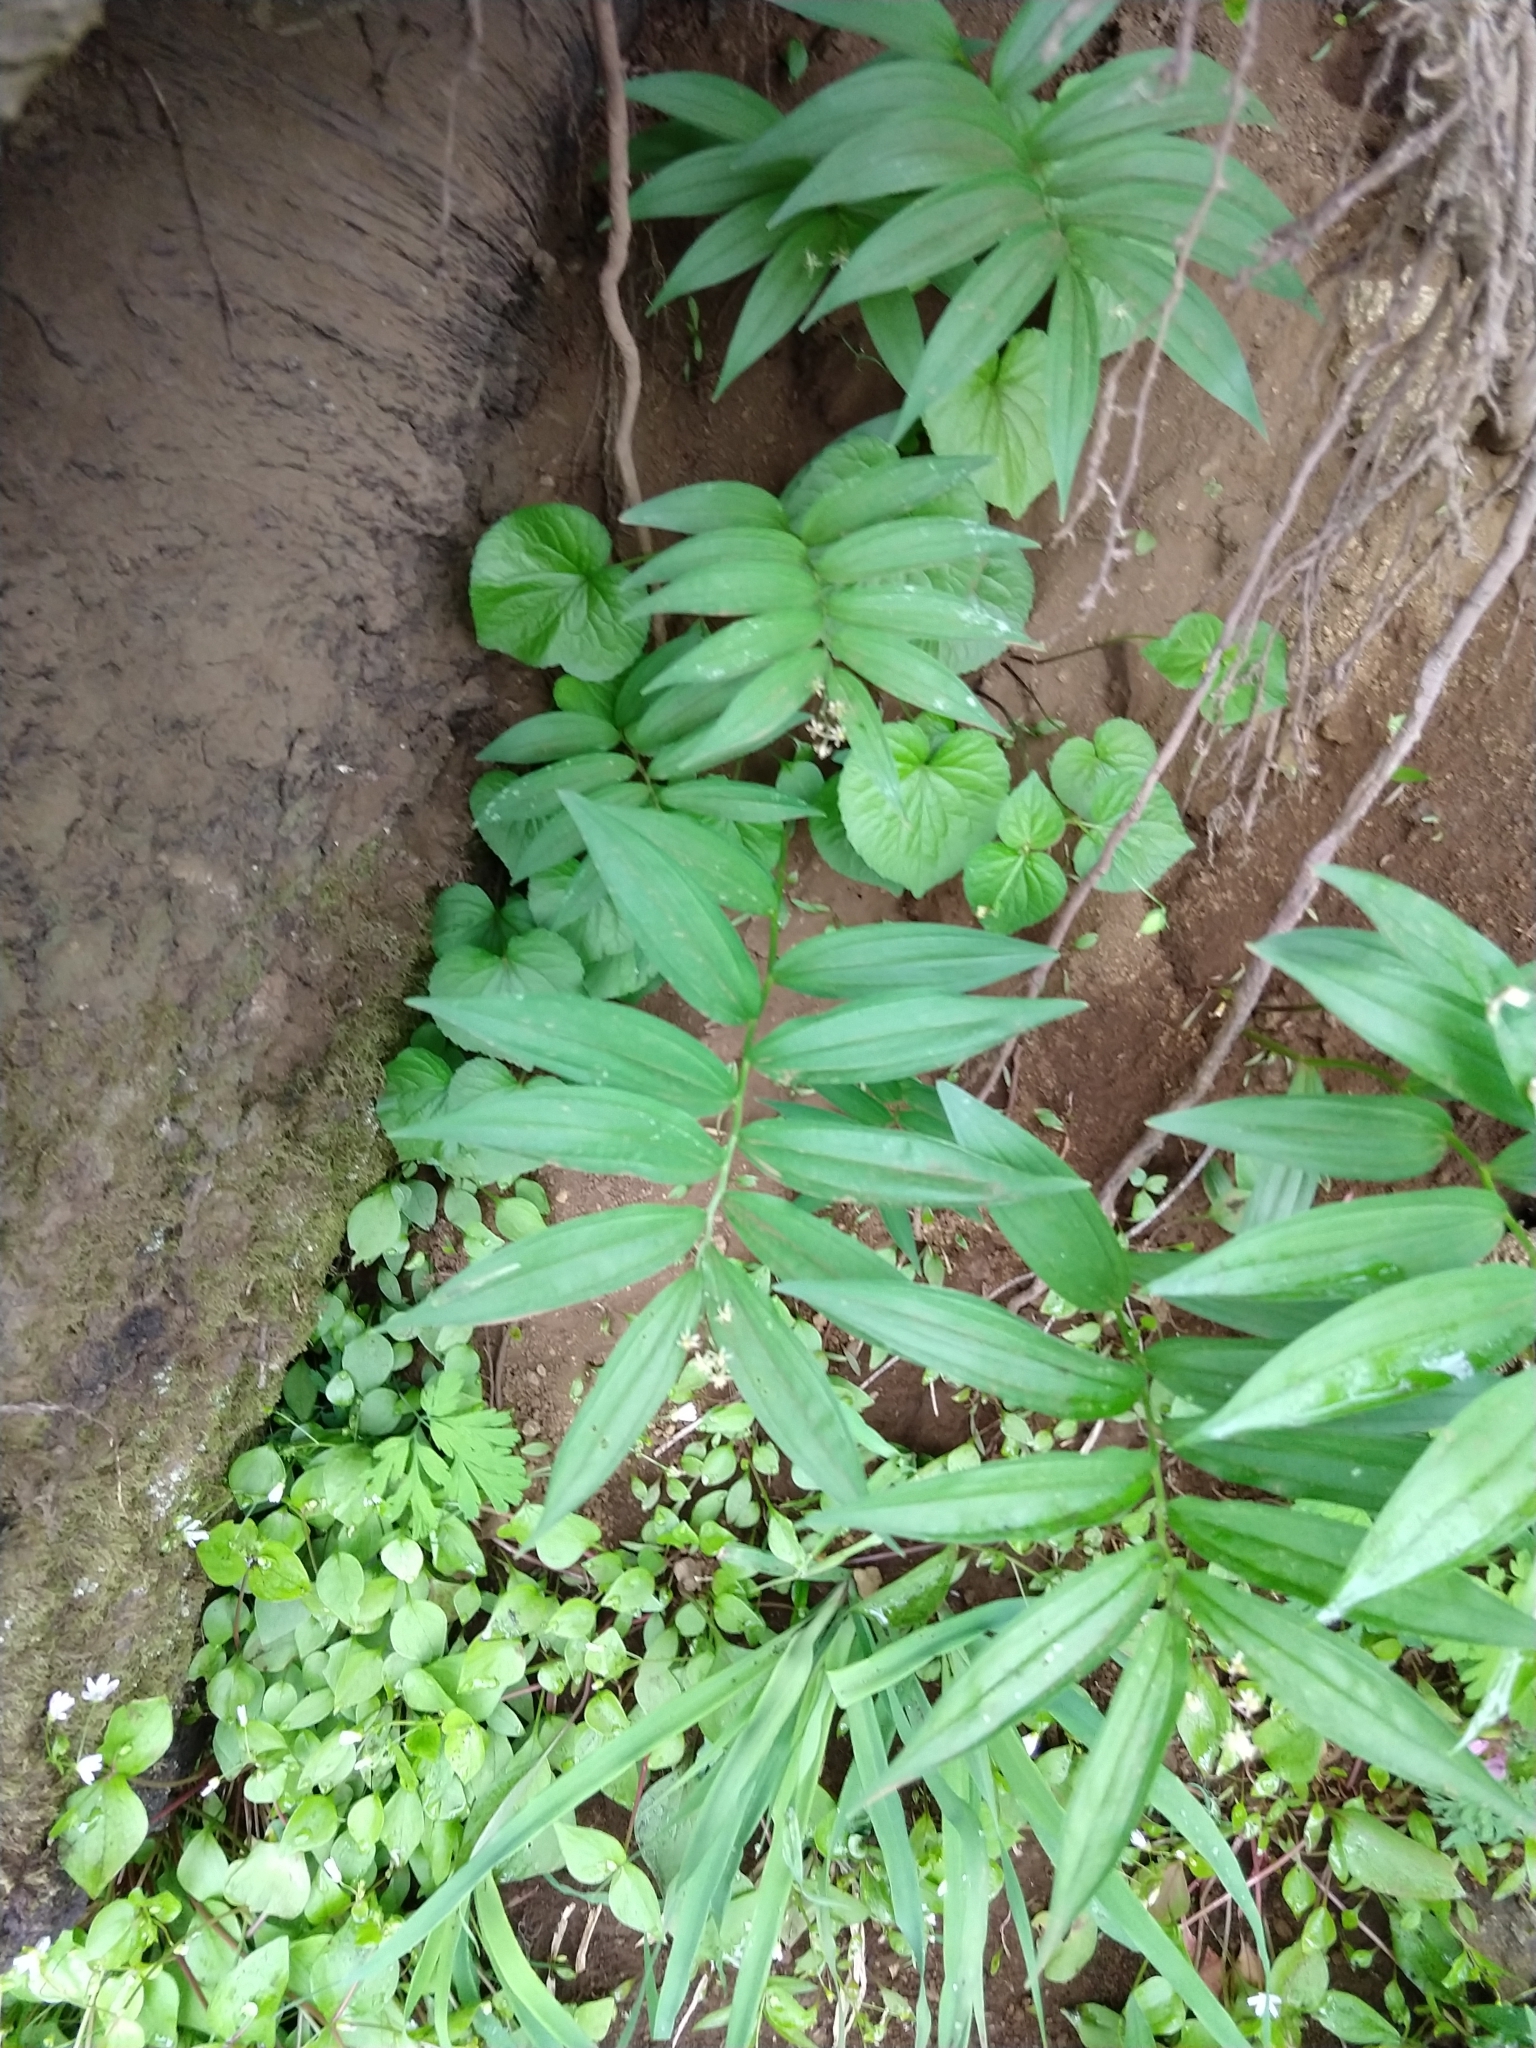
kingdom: Plantae
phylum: Tracheophyta
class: Liliopsida
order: Asparagales
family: Asparagaceae
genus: Maianthemum
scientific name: Maianthemum stellatum
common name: Little false solomon's seal
